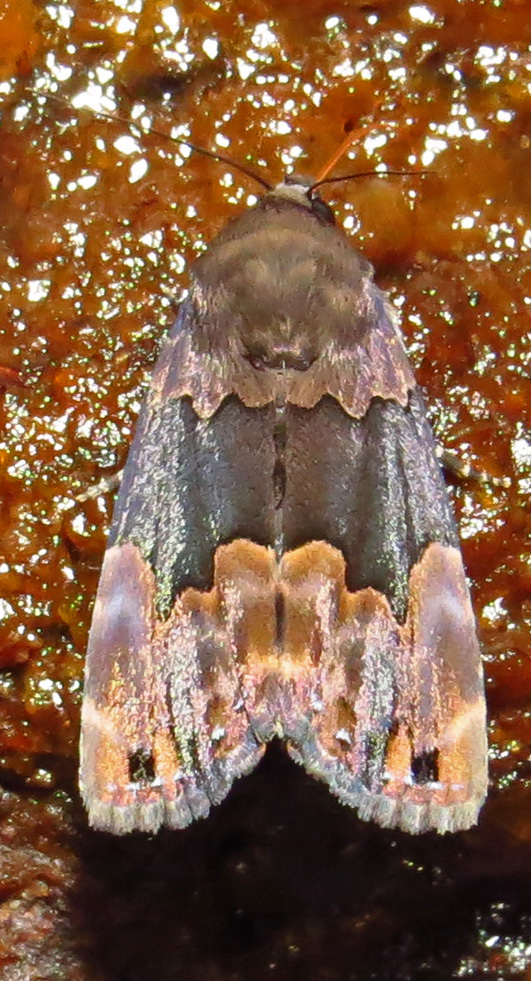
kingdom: Animalia
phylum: Arthropoda
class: Insecta
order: Lepidoptera
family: Erebidae
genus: Dinumma
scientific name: Dinumma deponens
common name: Purplish moth
